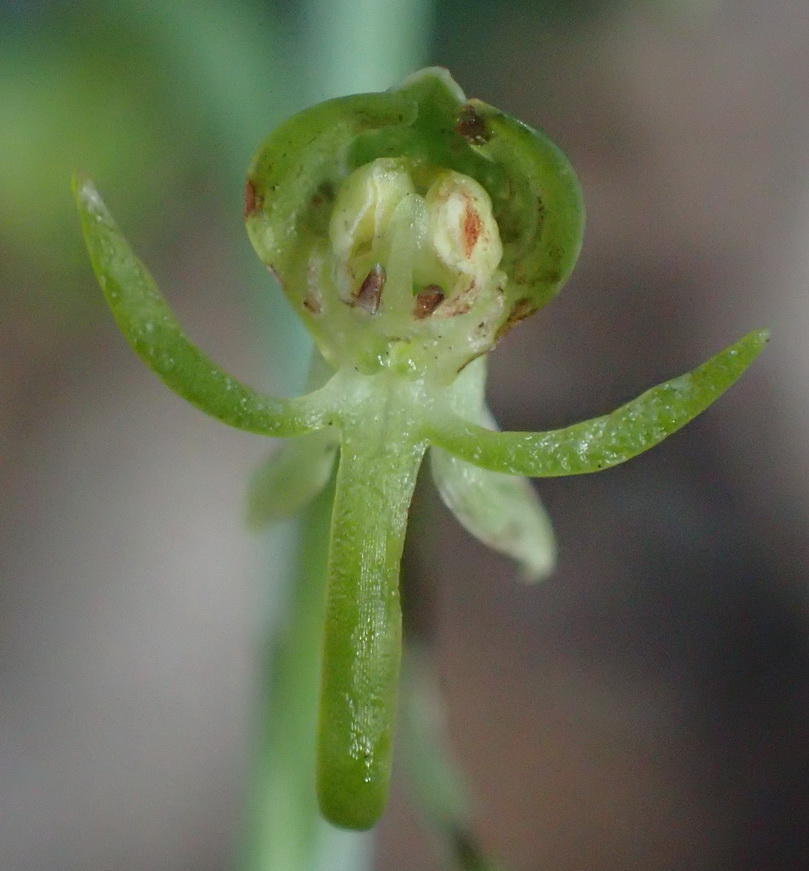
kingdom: Plantae
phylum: Tracheophyta
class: Liliopsida
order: Asparagales
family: Orchidaceae
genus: Habenaria
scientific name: Habenaria arenaria
